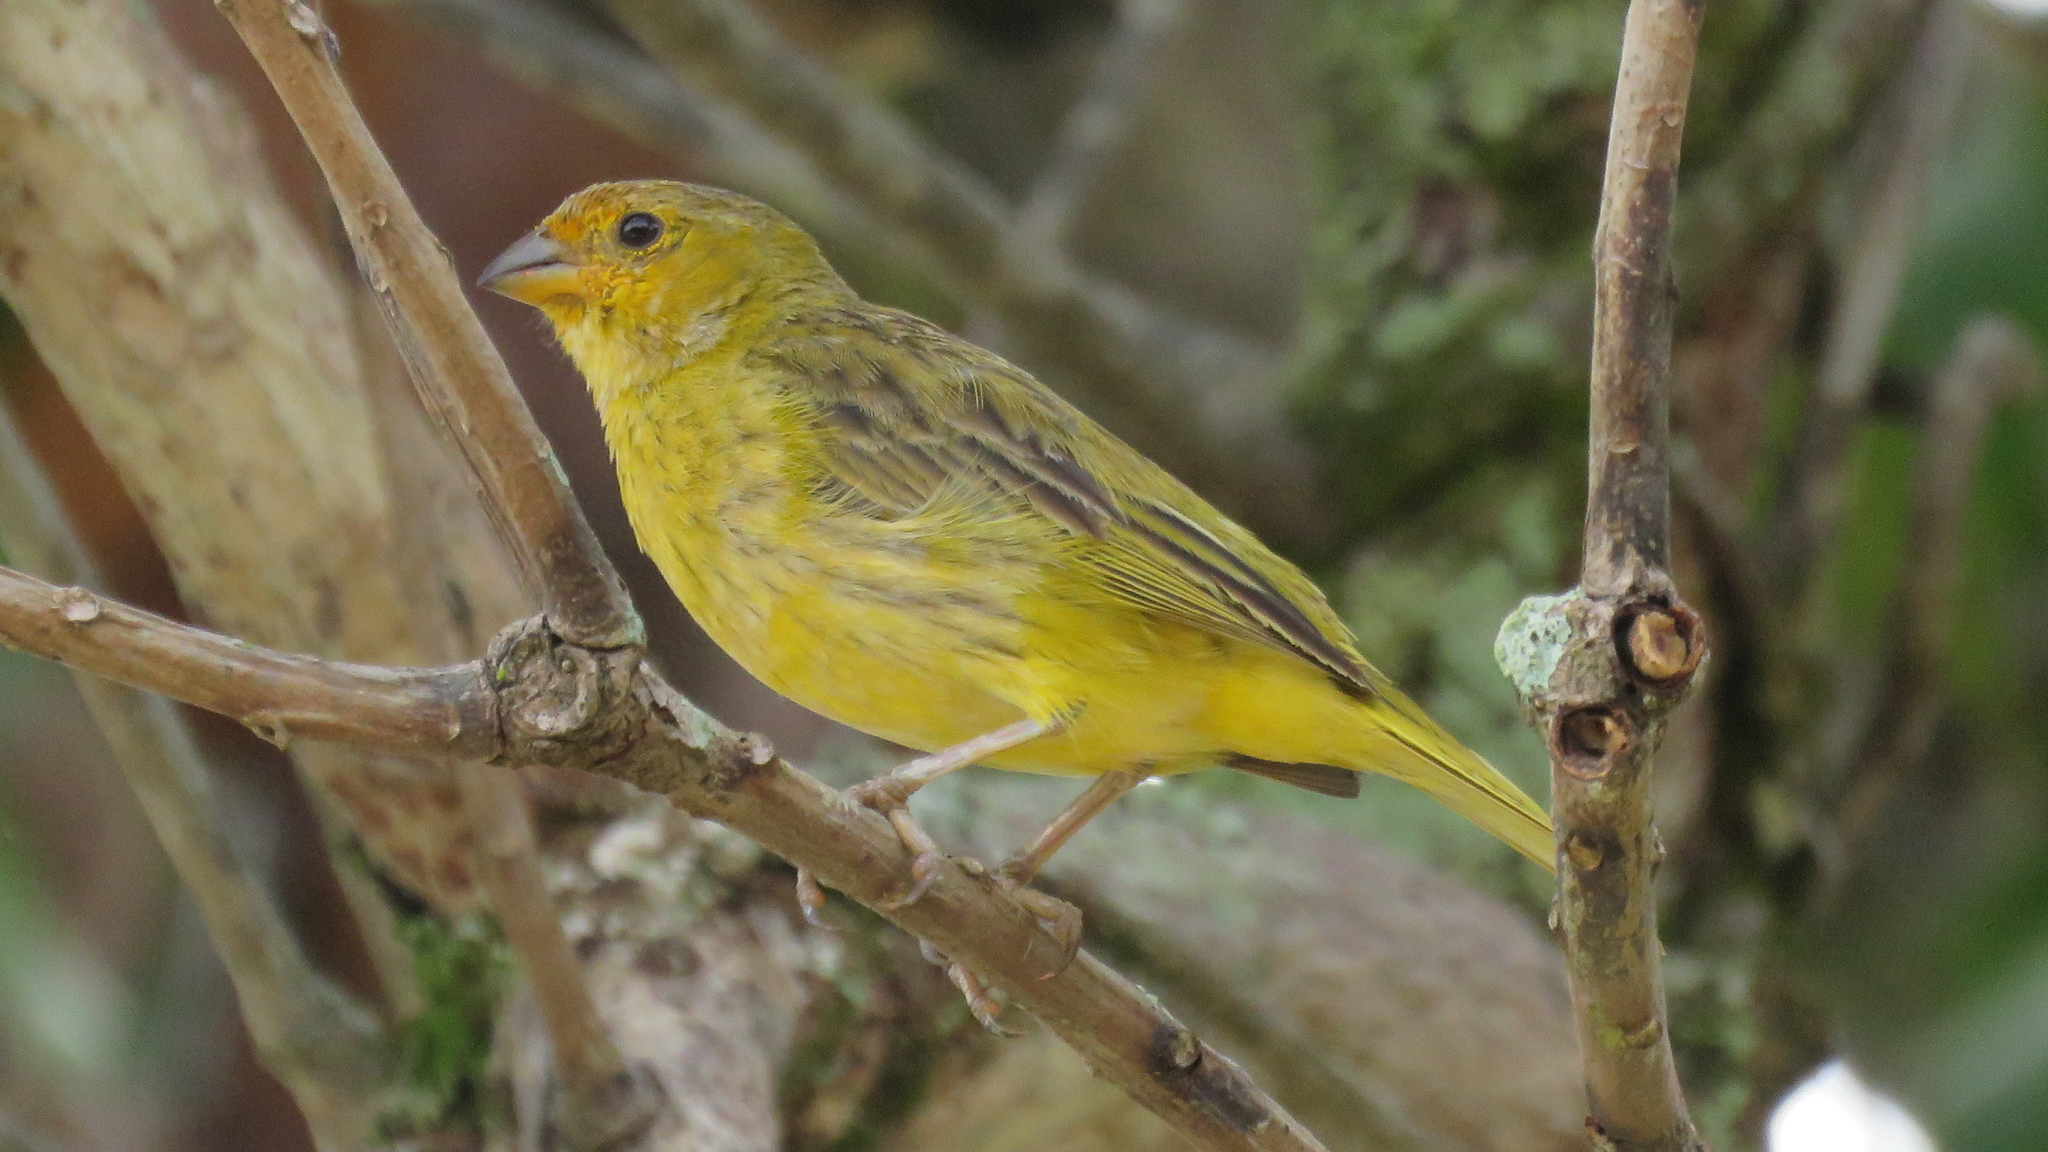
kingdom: Animalia
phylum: Chordata
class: Aves
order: Passeriformes
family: Thraupidae
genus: Sicalis
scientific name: Sicalis flaveola
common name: Saffron finch
